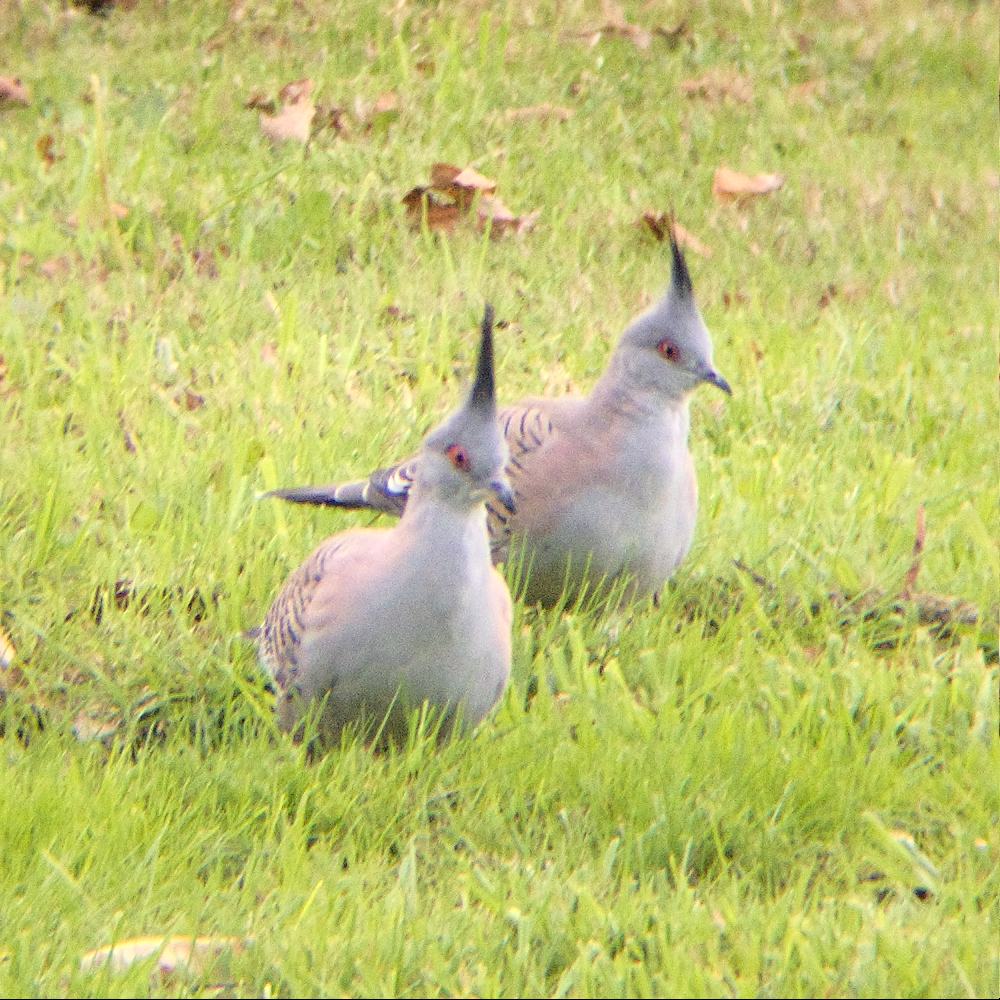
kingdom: Animalia
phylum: Chordata
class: Aves
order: Columbiformes
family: Columbidae
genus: Ocyphaps
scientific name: Ocyphaps lophotes
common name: Crested pigeon
